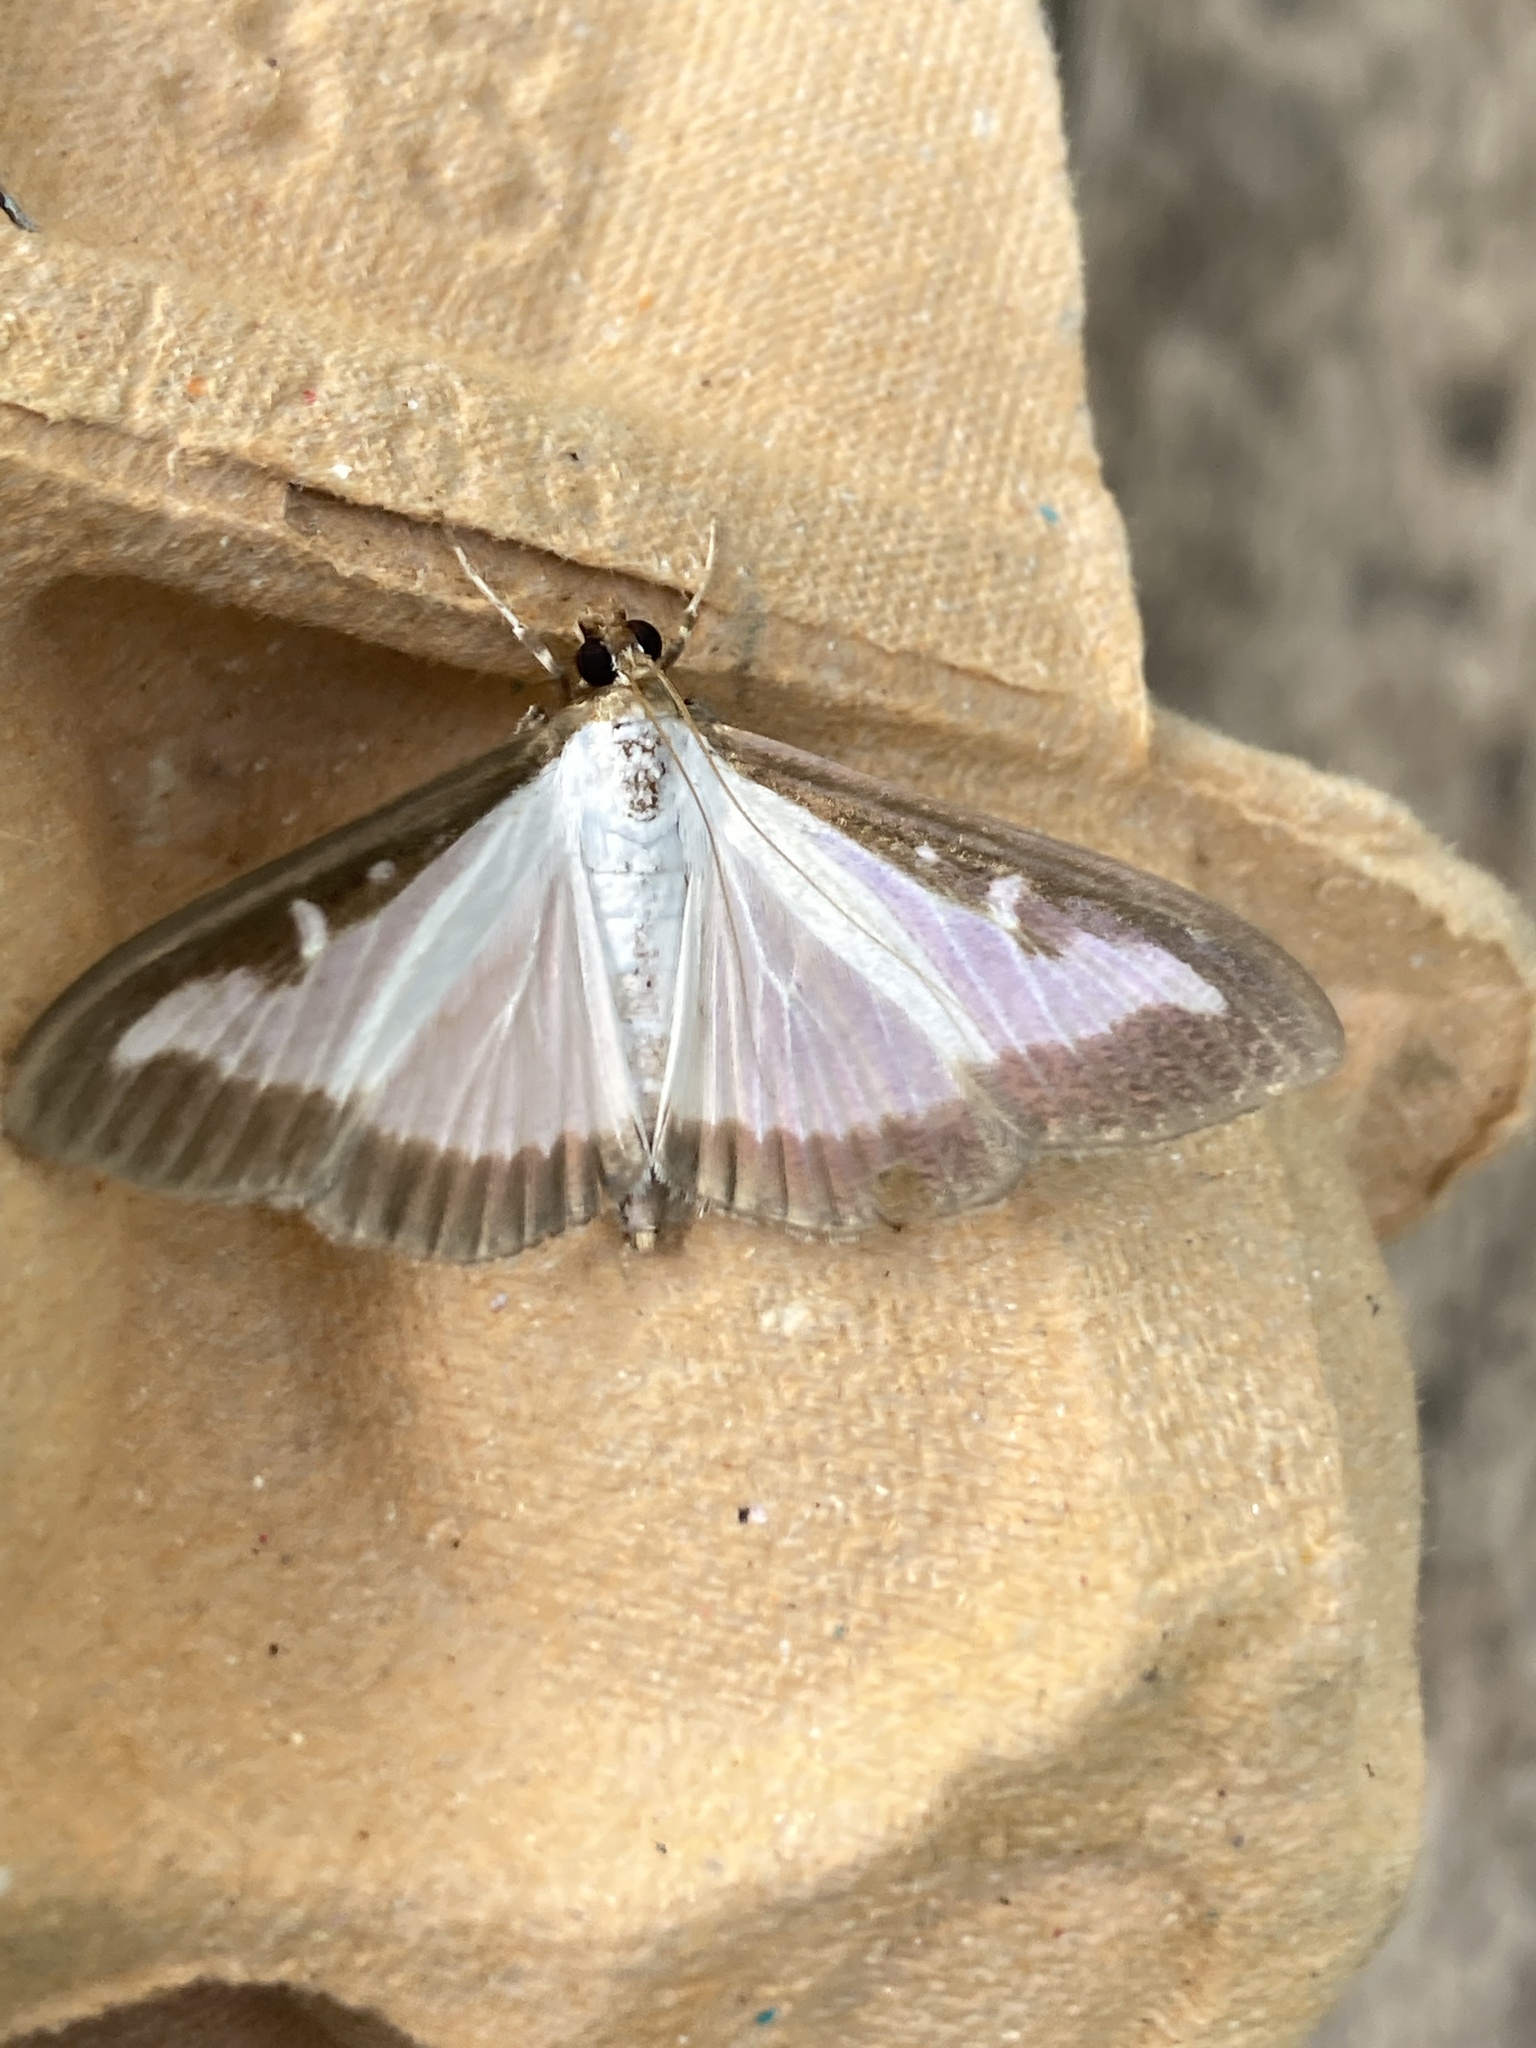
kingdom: Animalia
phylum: Arthropoda
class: Insecta
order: Lepidoptera
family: Crambidae
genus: Cydalima
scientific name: Cydalima perspectalis
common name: Box tree moth
